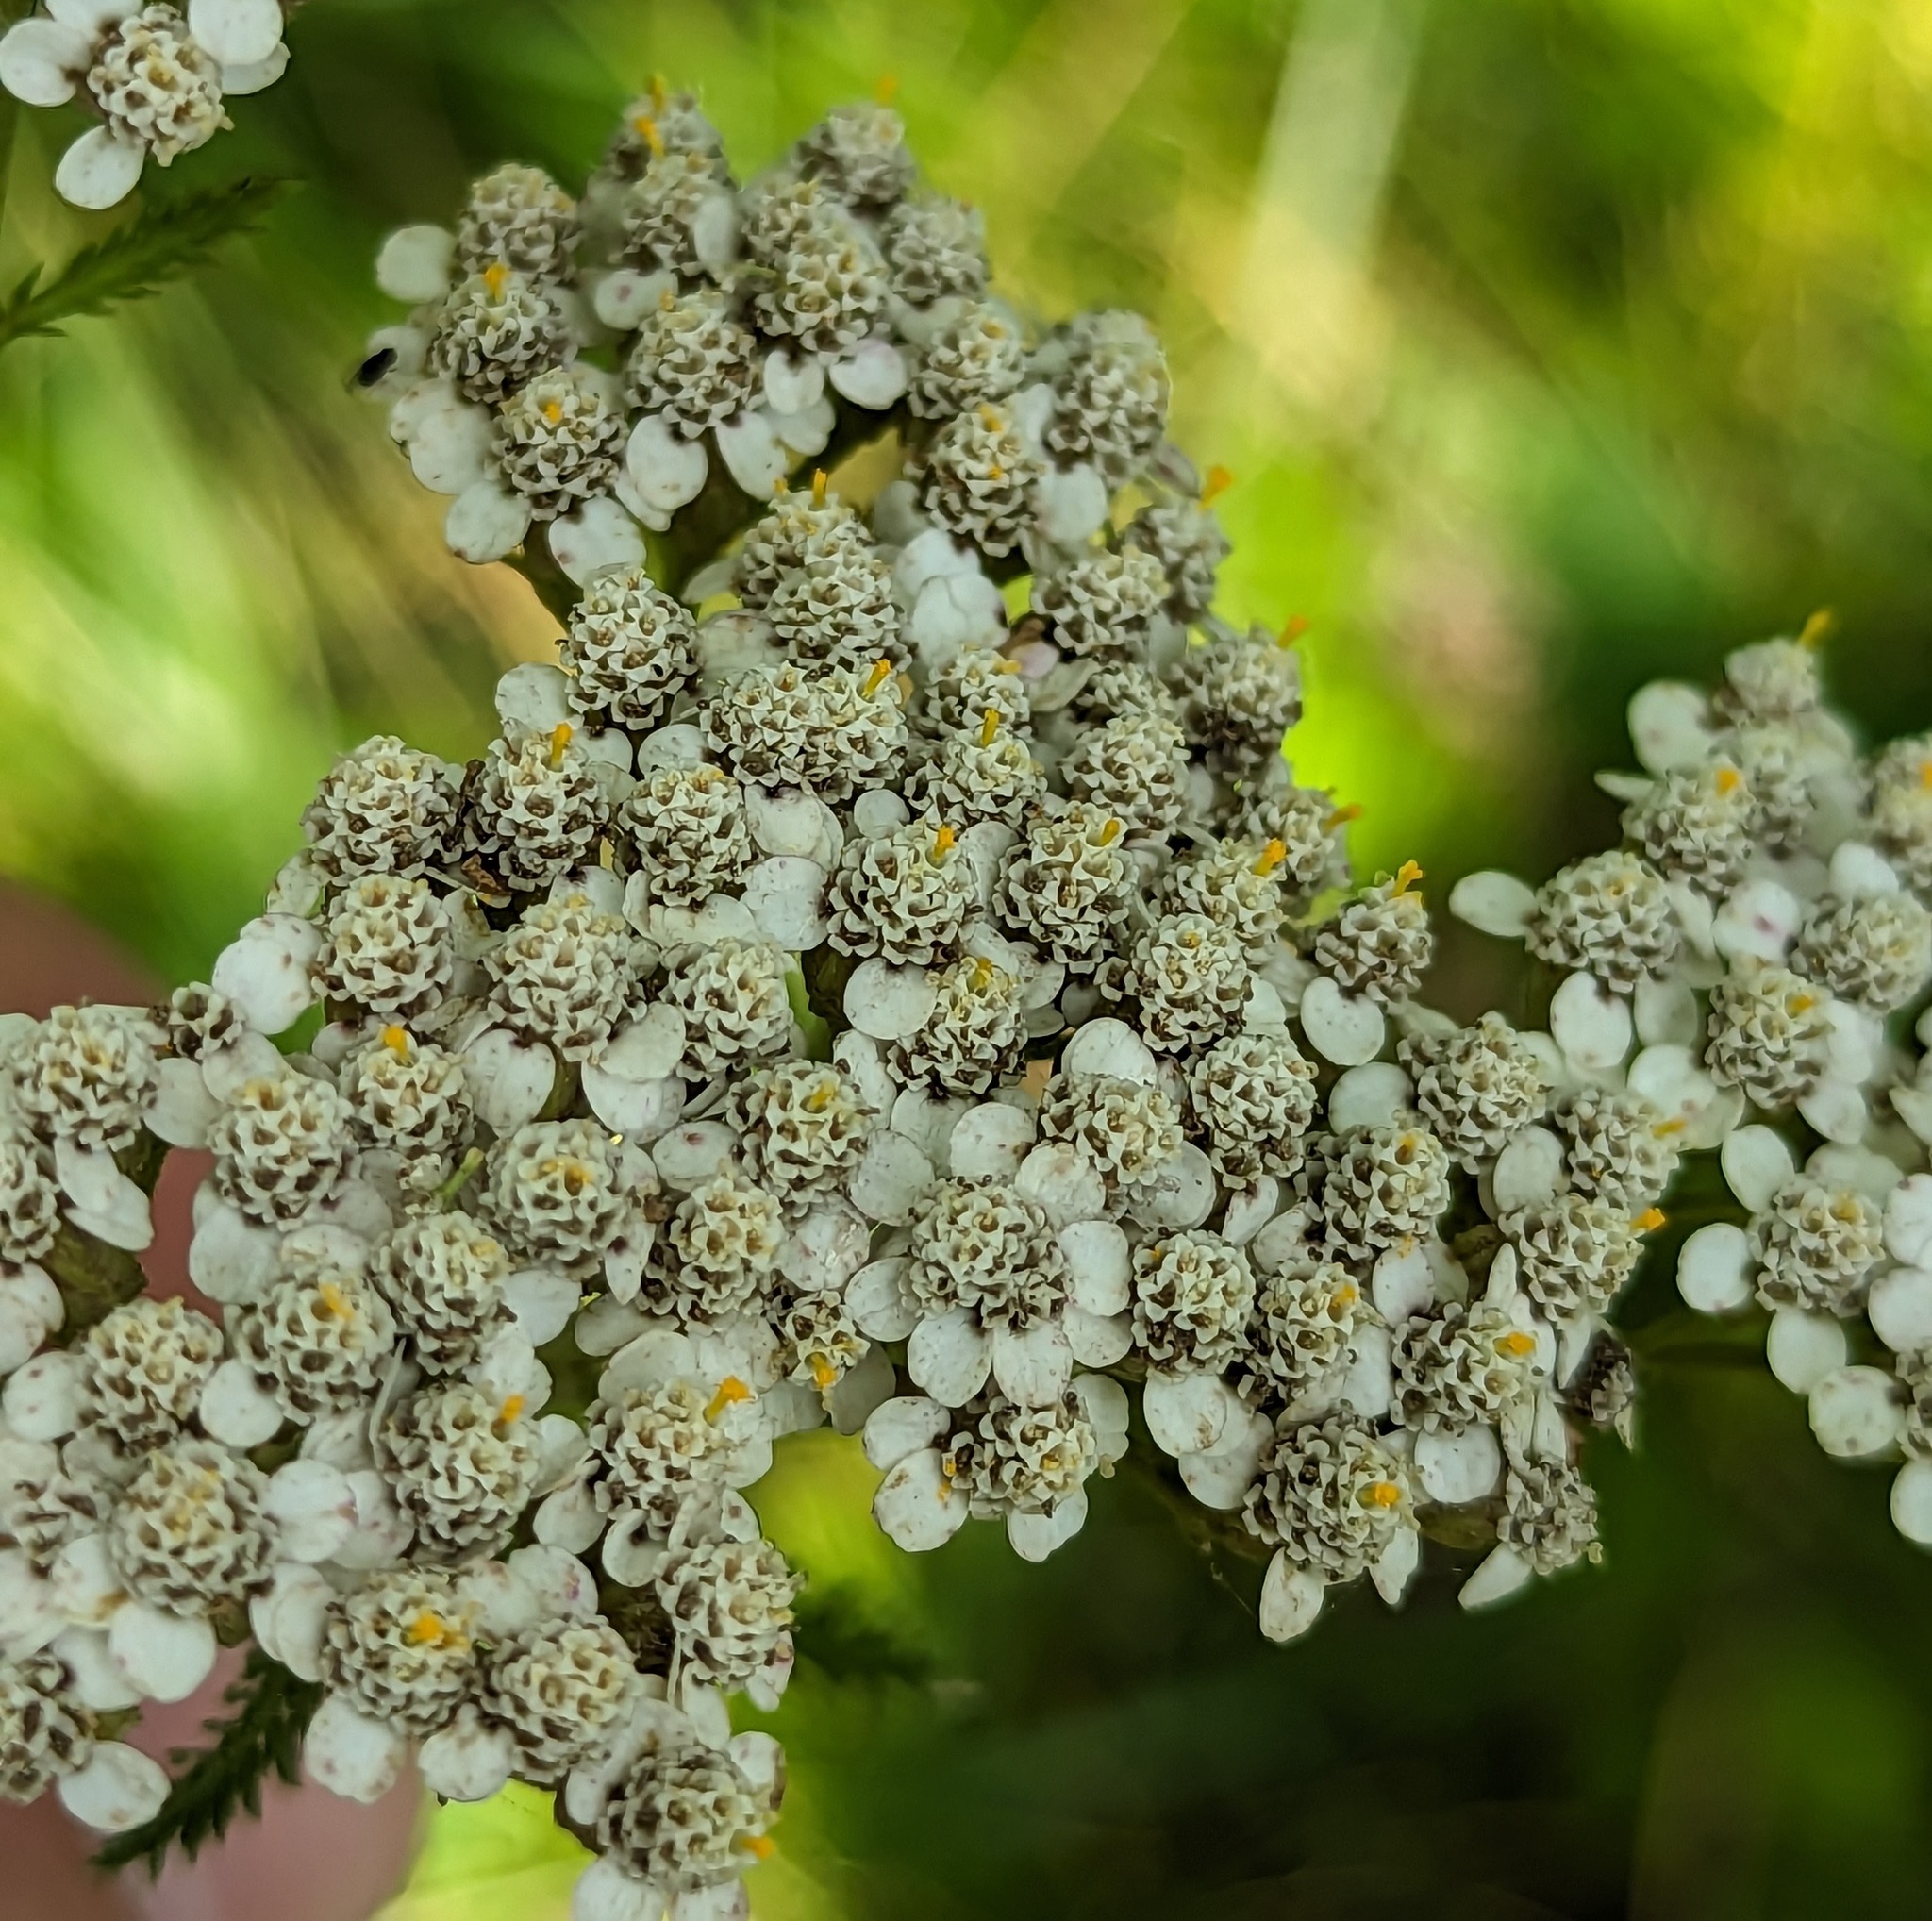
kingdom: Plantae
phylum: Tracheophyta
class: Magnoliopsida
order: Asterales
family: Asteraceae
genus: Achillea
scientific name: Achillea millefolium
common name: Yarrow
